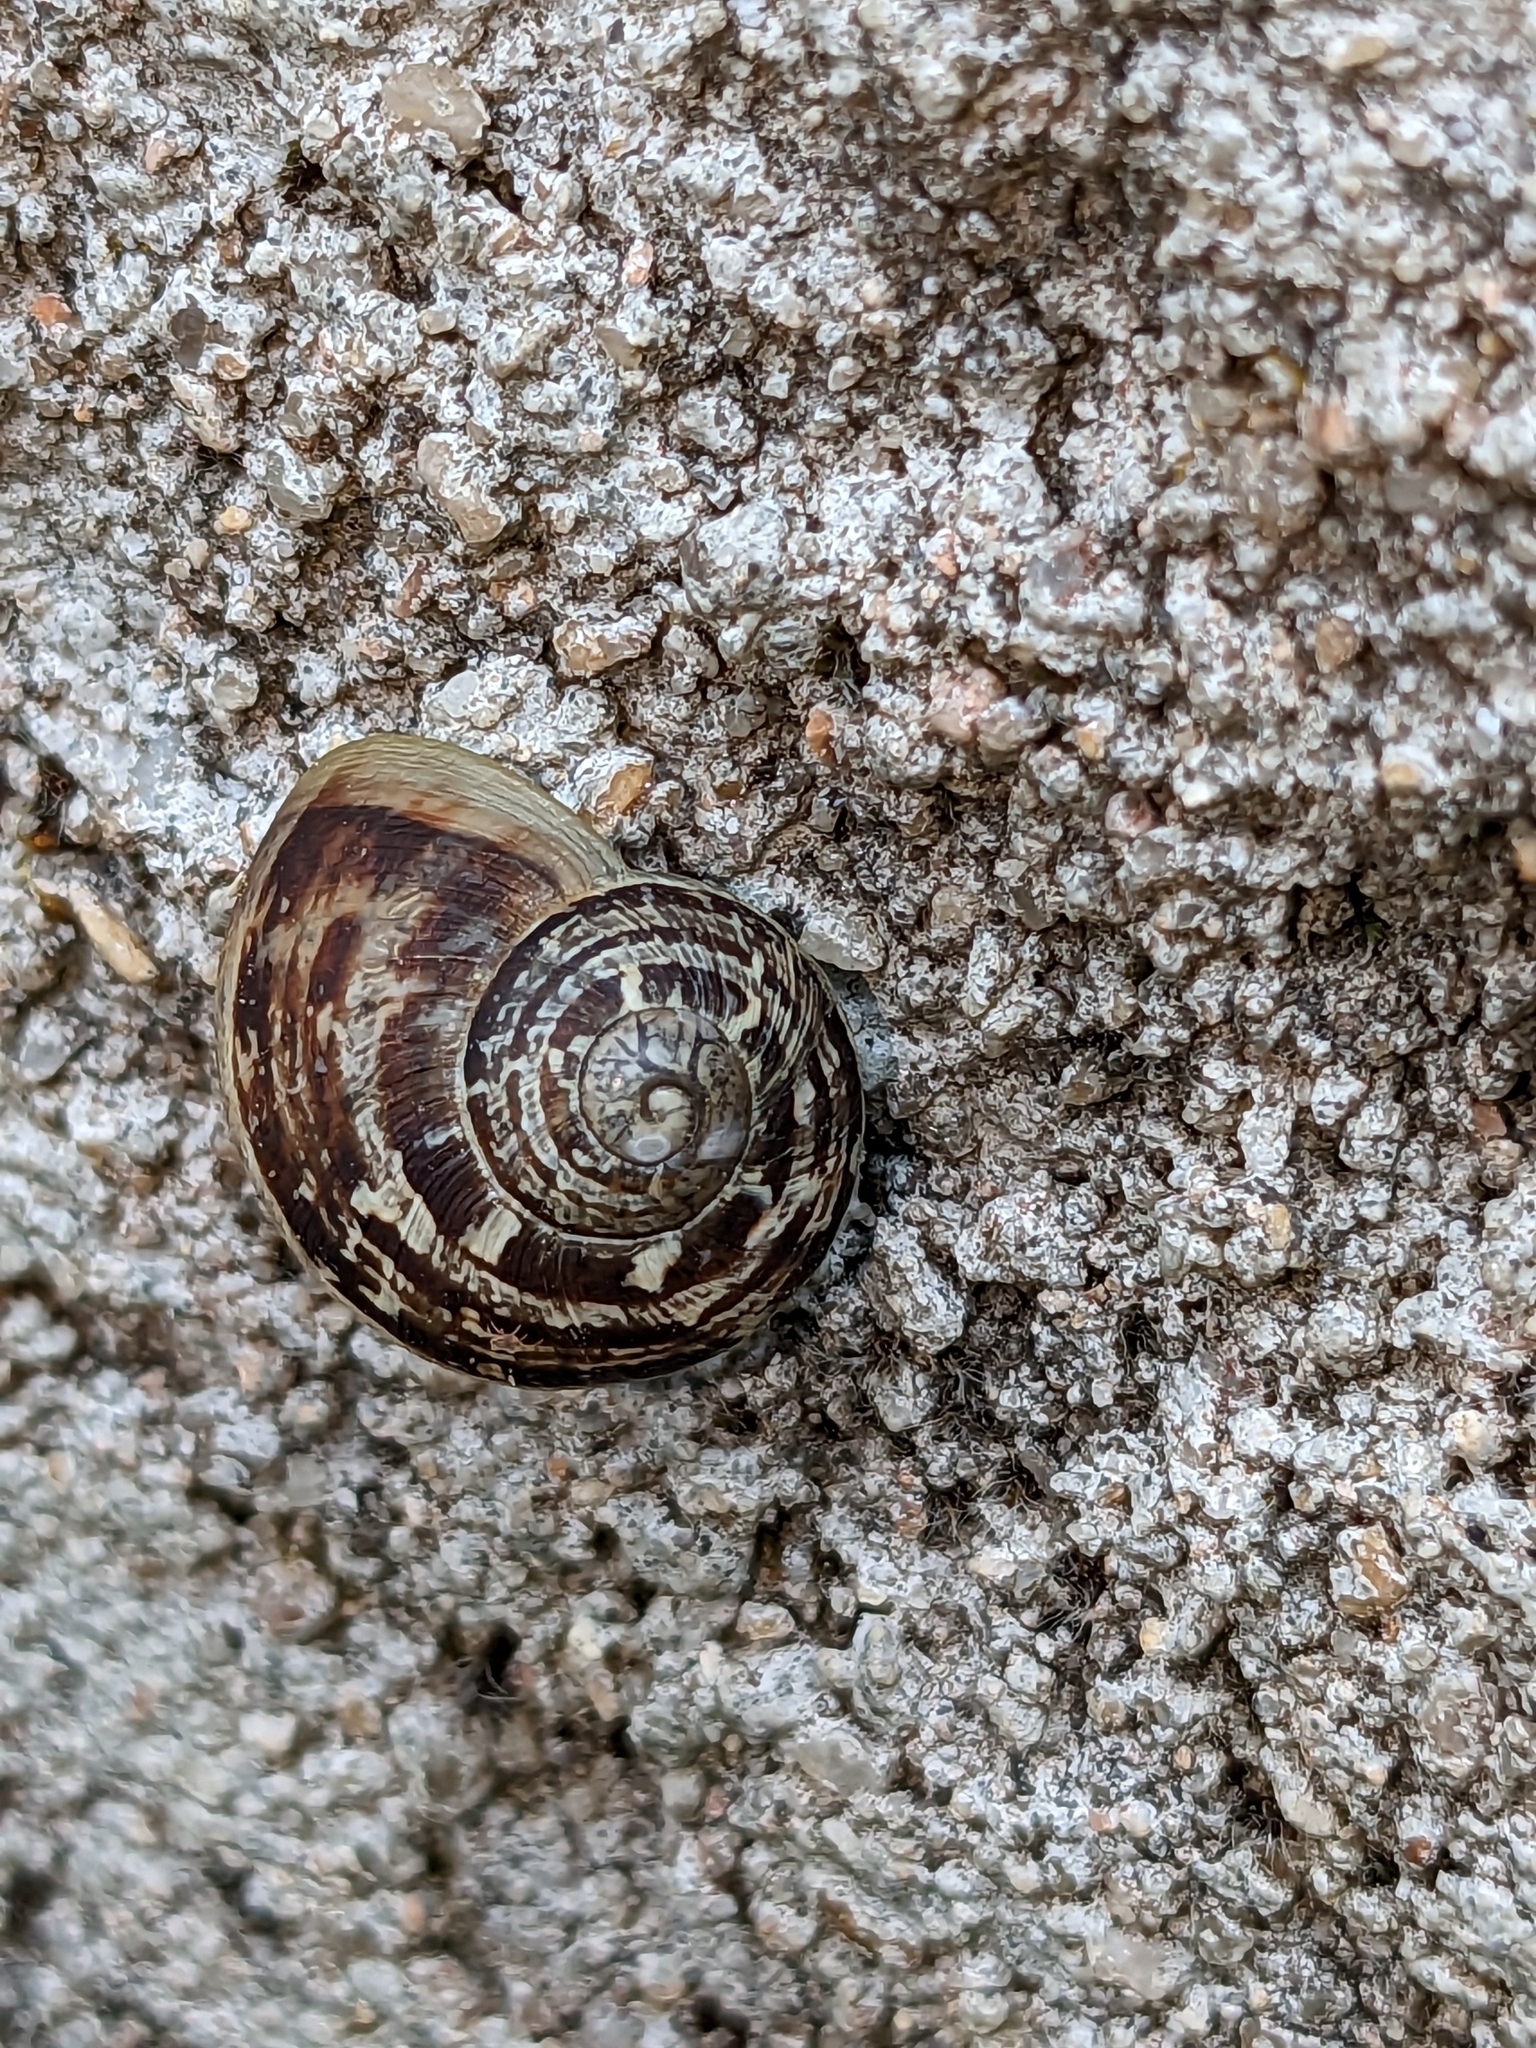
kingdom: Animalia
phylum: Mollusca
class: Gastropoda
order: Stylommatophora
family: Helicidae
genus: Cornu
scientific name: Cornu aspersum
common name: Brown garden snail
